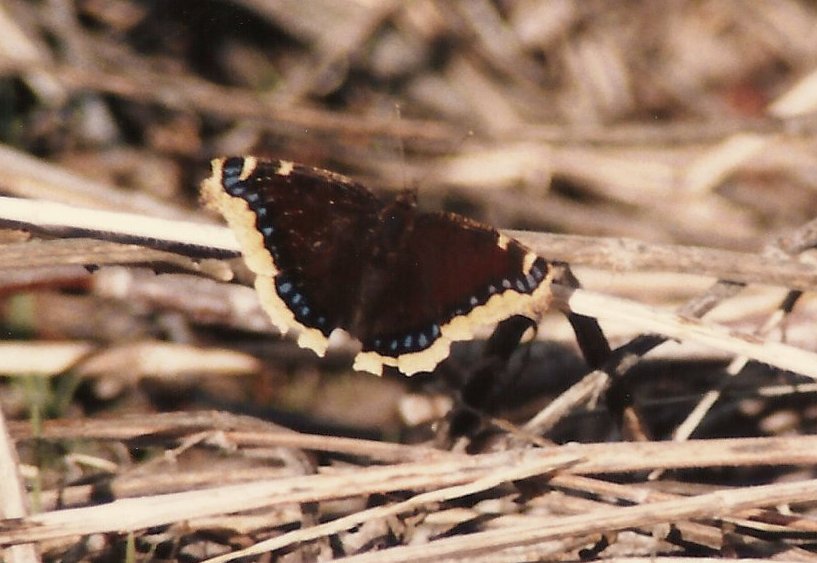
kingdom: Animalia
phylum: Arthropoda
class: Insecta
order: Lepidoptera
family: Nymphalidae
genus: Nymphalis
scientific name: Nymphalis antiopa
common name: Camberwell beauty
